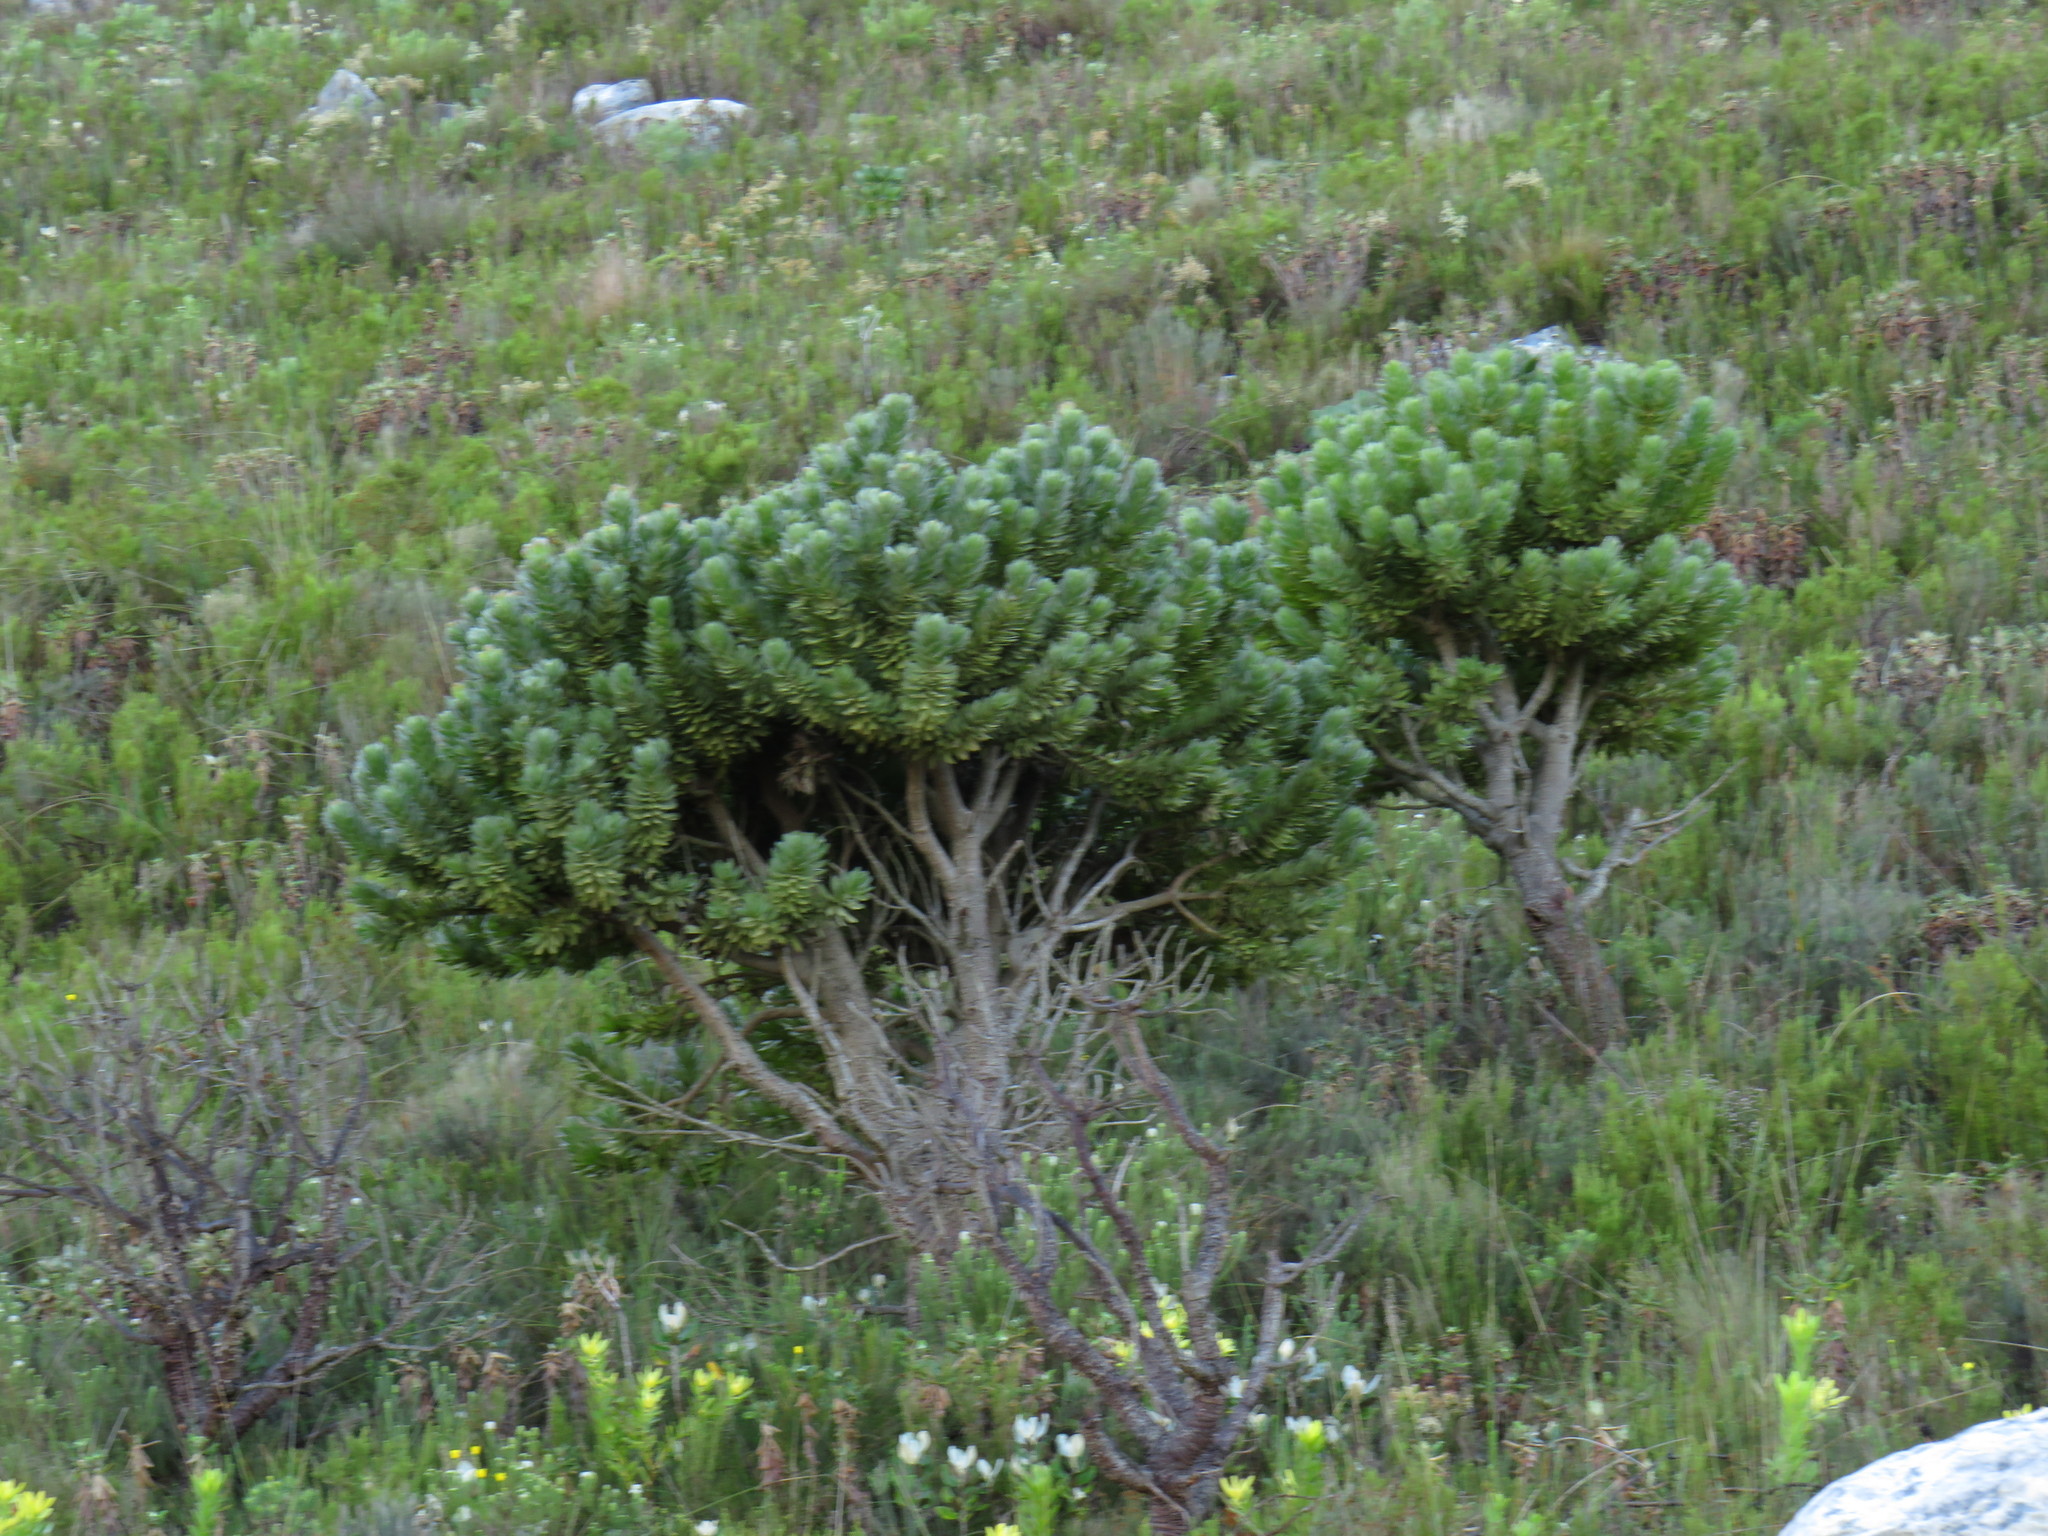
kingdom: Plantae
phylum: Tracheophyta
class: Magnoliopsida
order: Proteales
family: Proteaceae
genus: Mimetes
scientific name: Mimetes fimbriifolius
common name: Fringed bottlebrush
